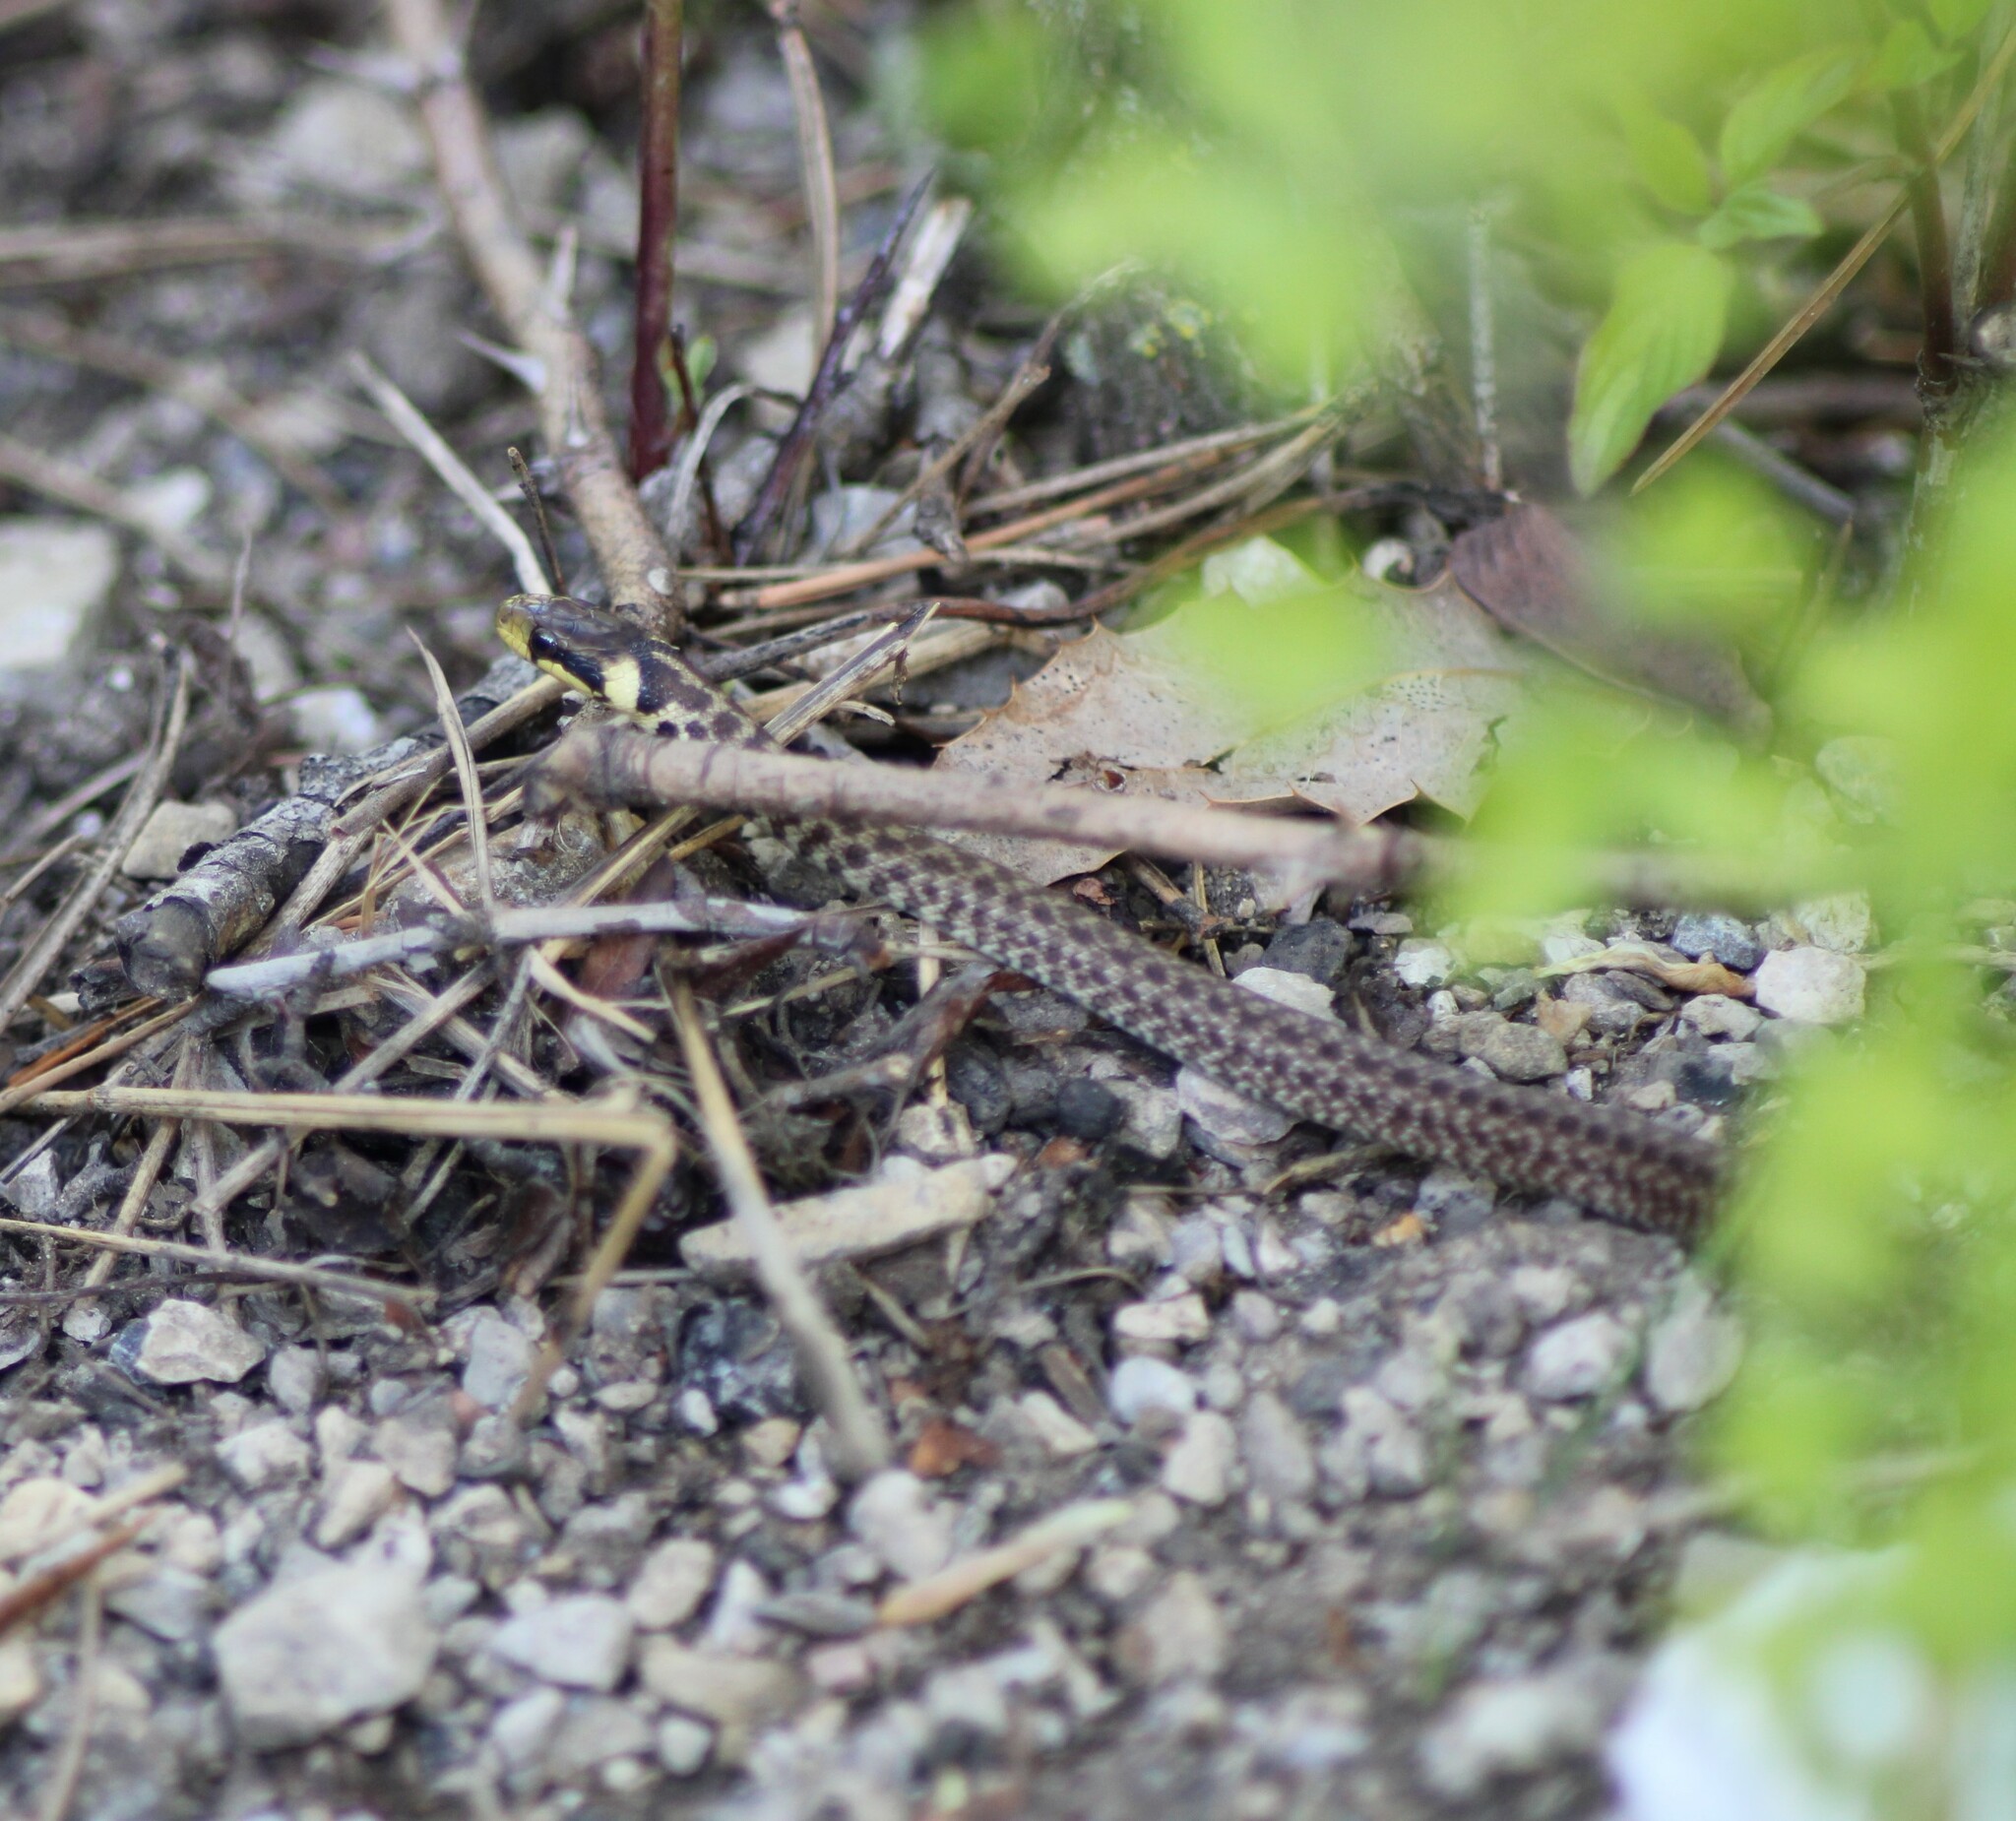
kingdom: Animalia
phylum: Chordata
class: Squamata
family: Colubridae
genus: Zamenis
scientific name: Zamenis longissimus
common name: Aesculapean snake
